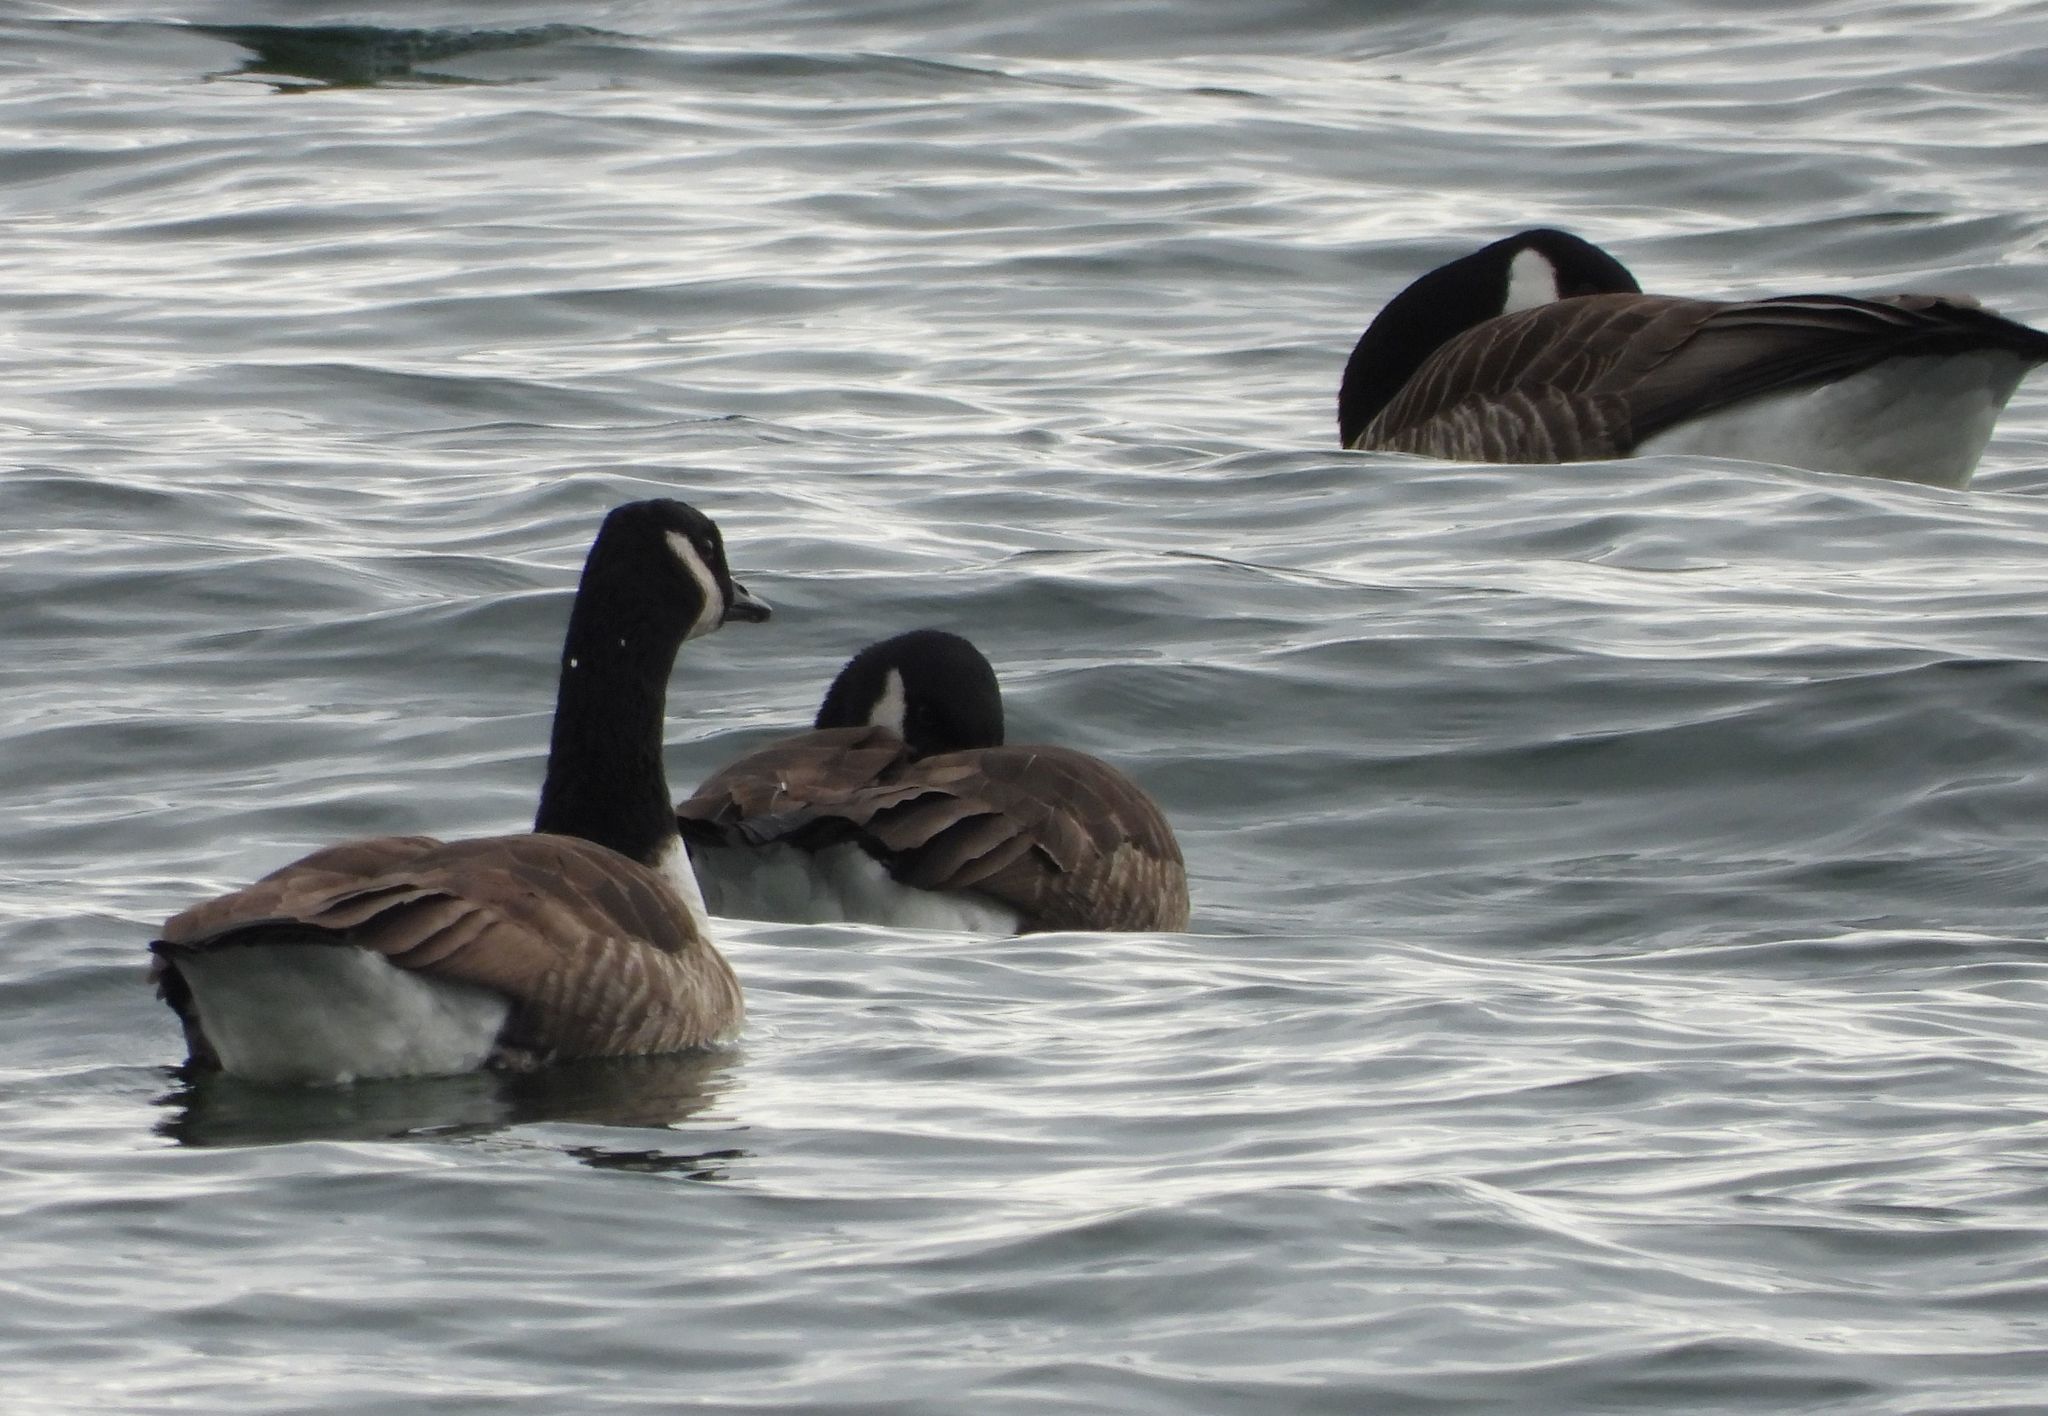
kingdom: Animalia
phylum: Chordata
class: Aves
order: Anseriformes
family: Anatidae
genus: Branta
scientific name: Branta canadensis
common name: Canada goose
